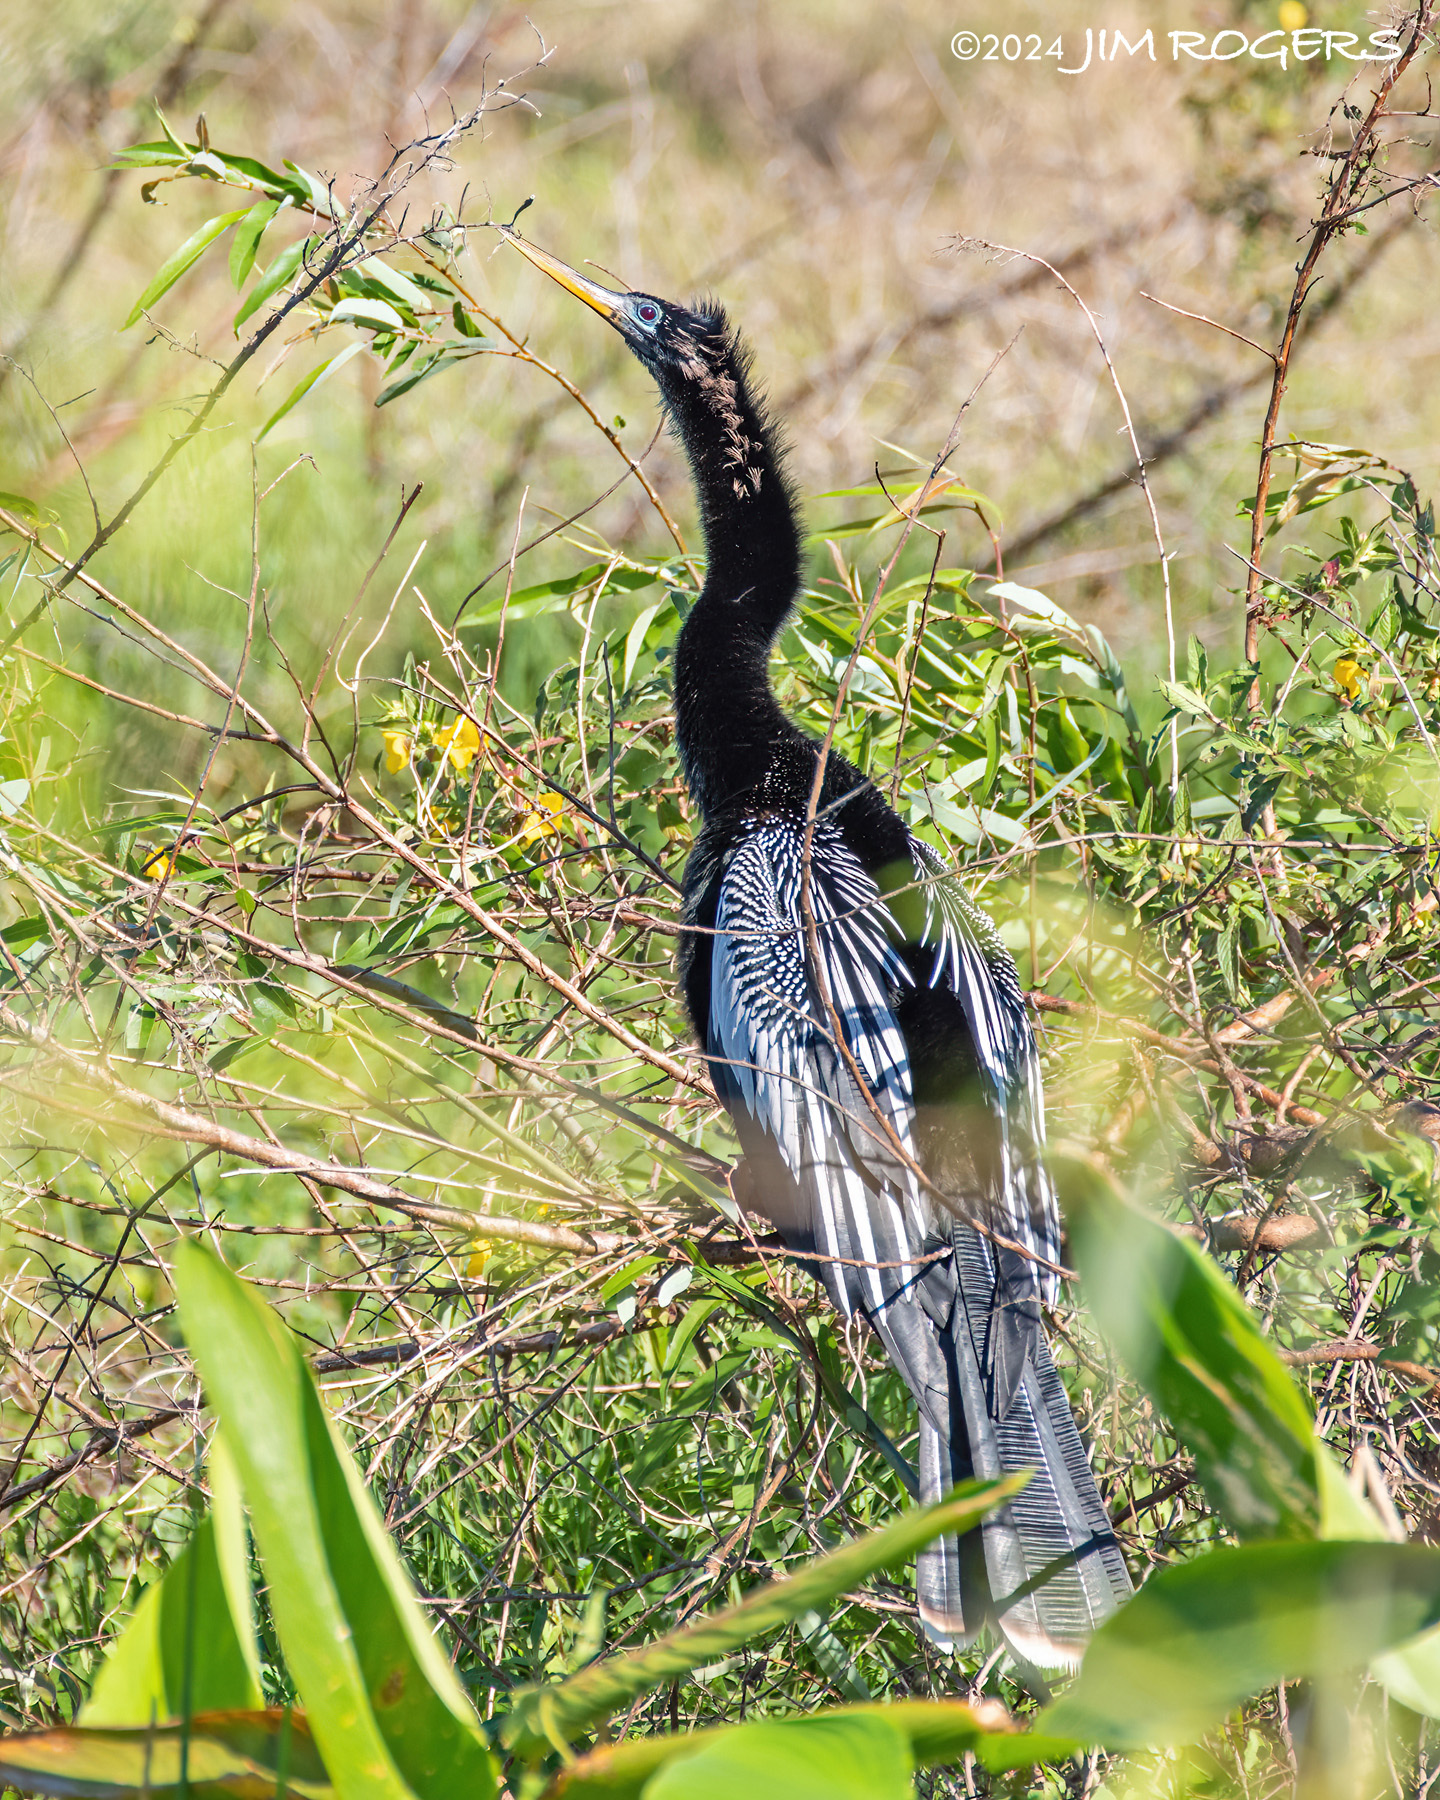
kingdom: Animalia
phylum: Chordata
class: Aves
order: Suliformes
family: Anhingidae
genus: Anhinga
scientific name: Anhinga anhinga
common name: Anhinga
